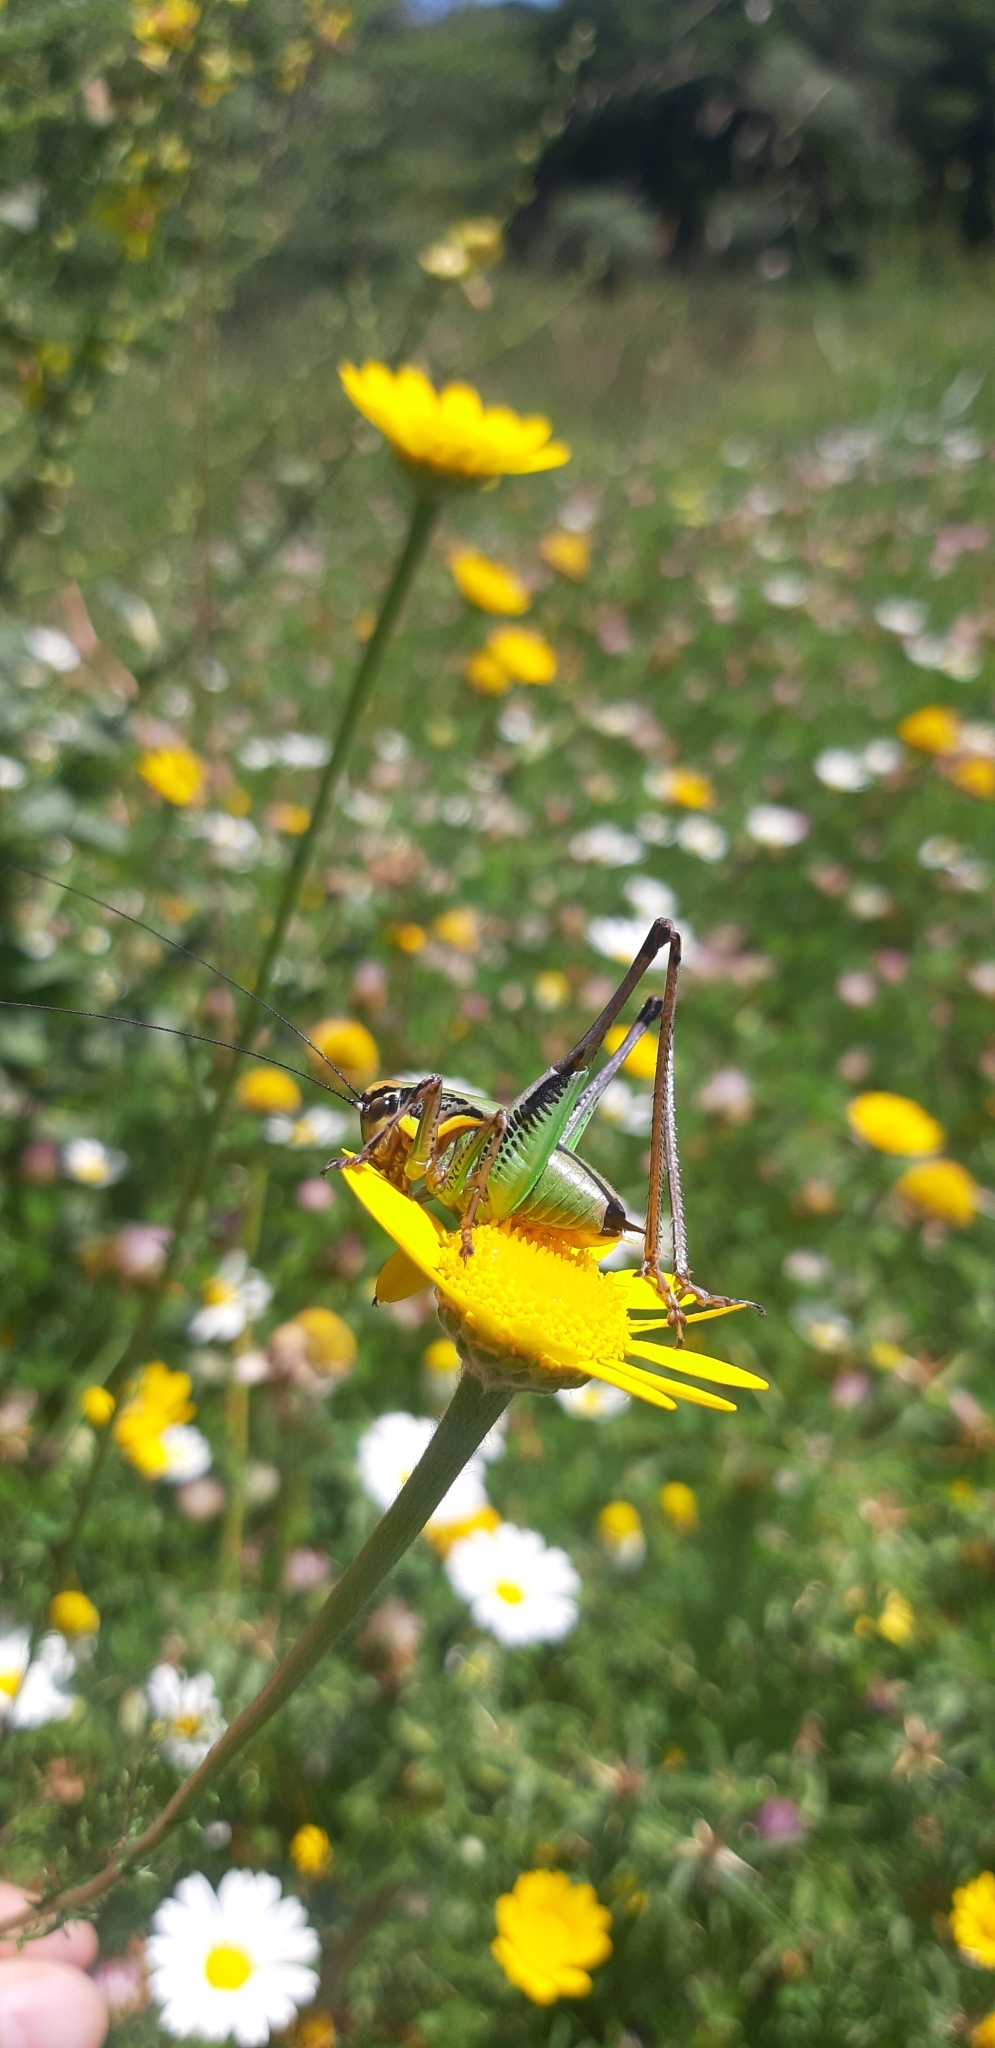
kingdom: Animalia
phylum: Arthropoda
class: Insecta
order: Orthoptera
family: Tettigoniidae
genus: Eupholidoptera
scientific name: Eupholidoptera magnifica
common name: Splendid marbled bush-cricket
